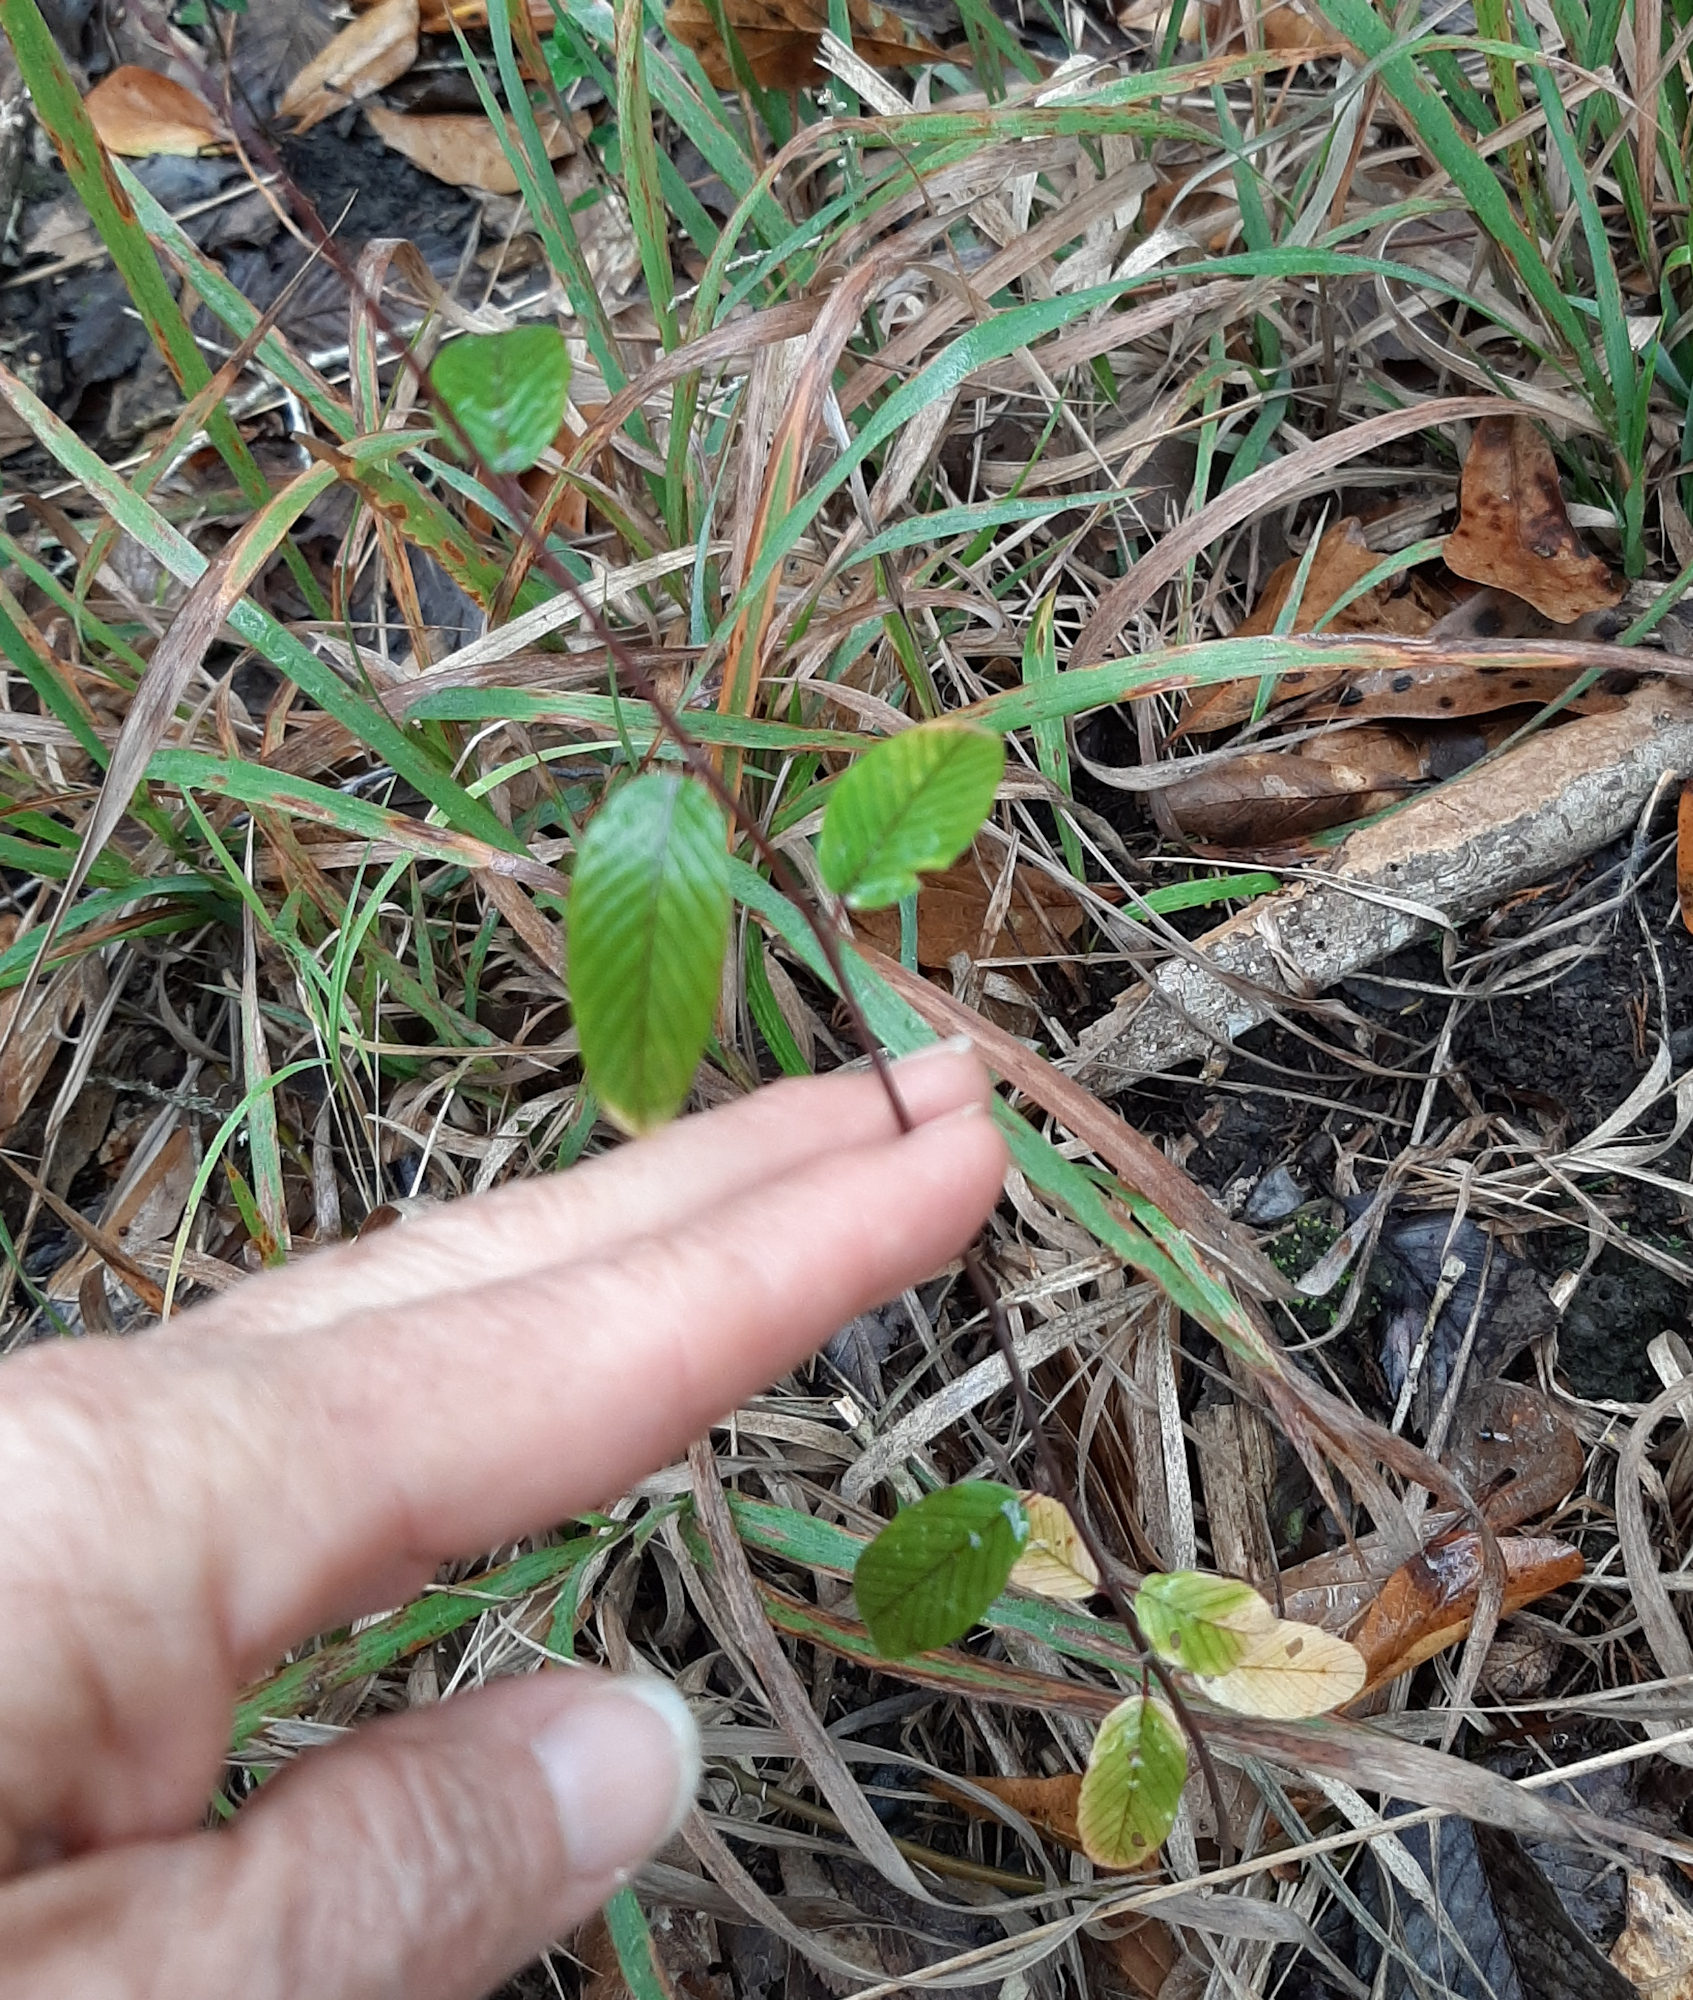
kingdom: Plantae
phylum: Tracheophyta
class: Magnoliopsida
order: Rosales
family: Rhamnaceae
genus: Berchemia
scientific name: Berchemia scandens
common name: Supplejack
